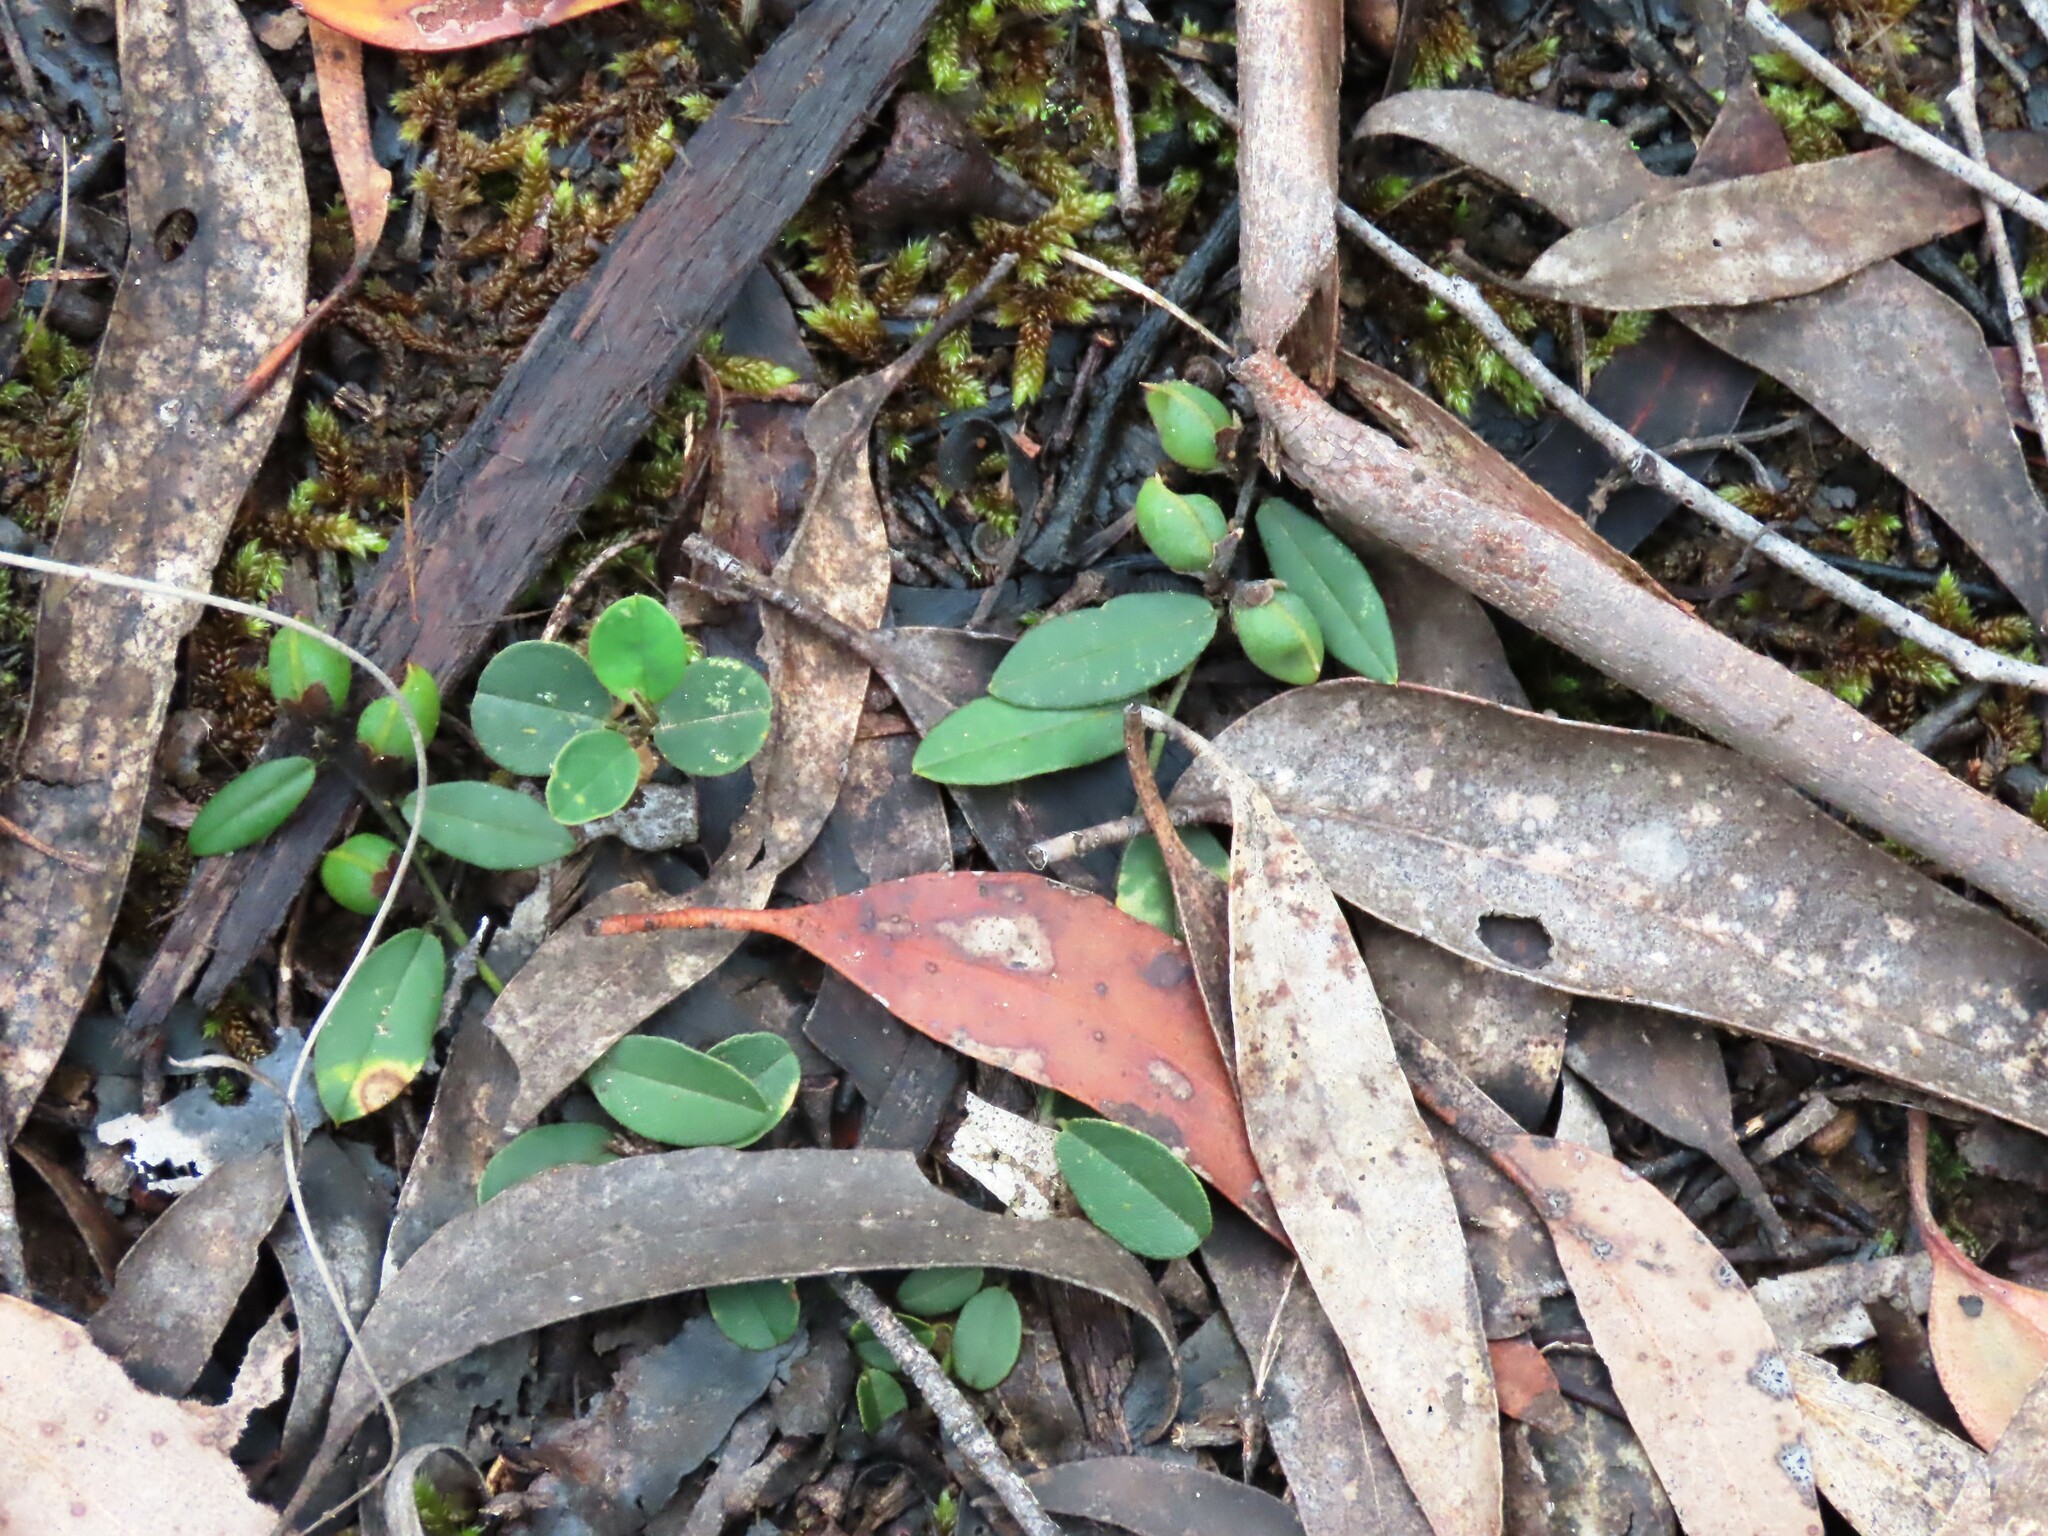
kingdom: Plantae
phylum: Tracheophyta
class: Magnoliopsida
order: Fabales
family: Fabaceae
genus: Hovea
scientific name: Hovea heterophylla
